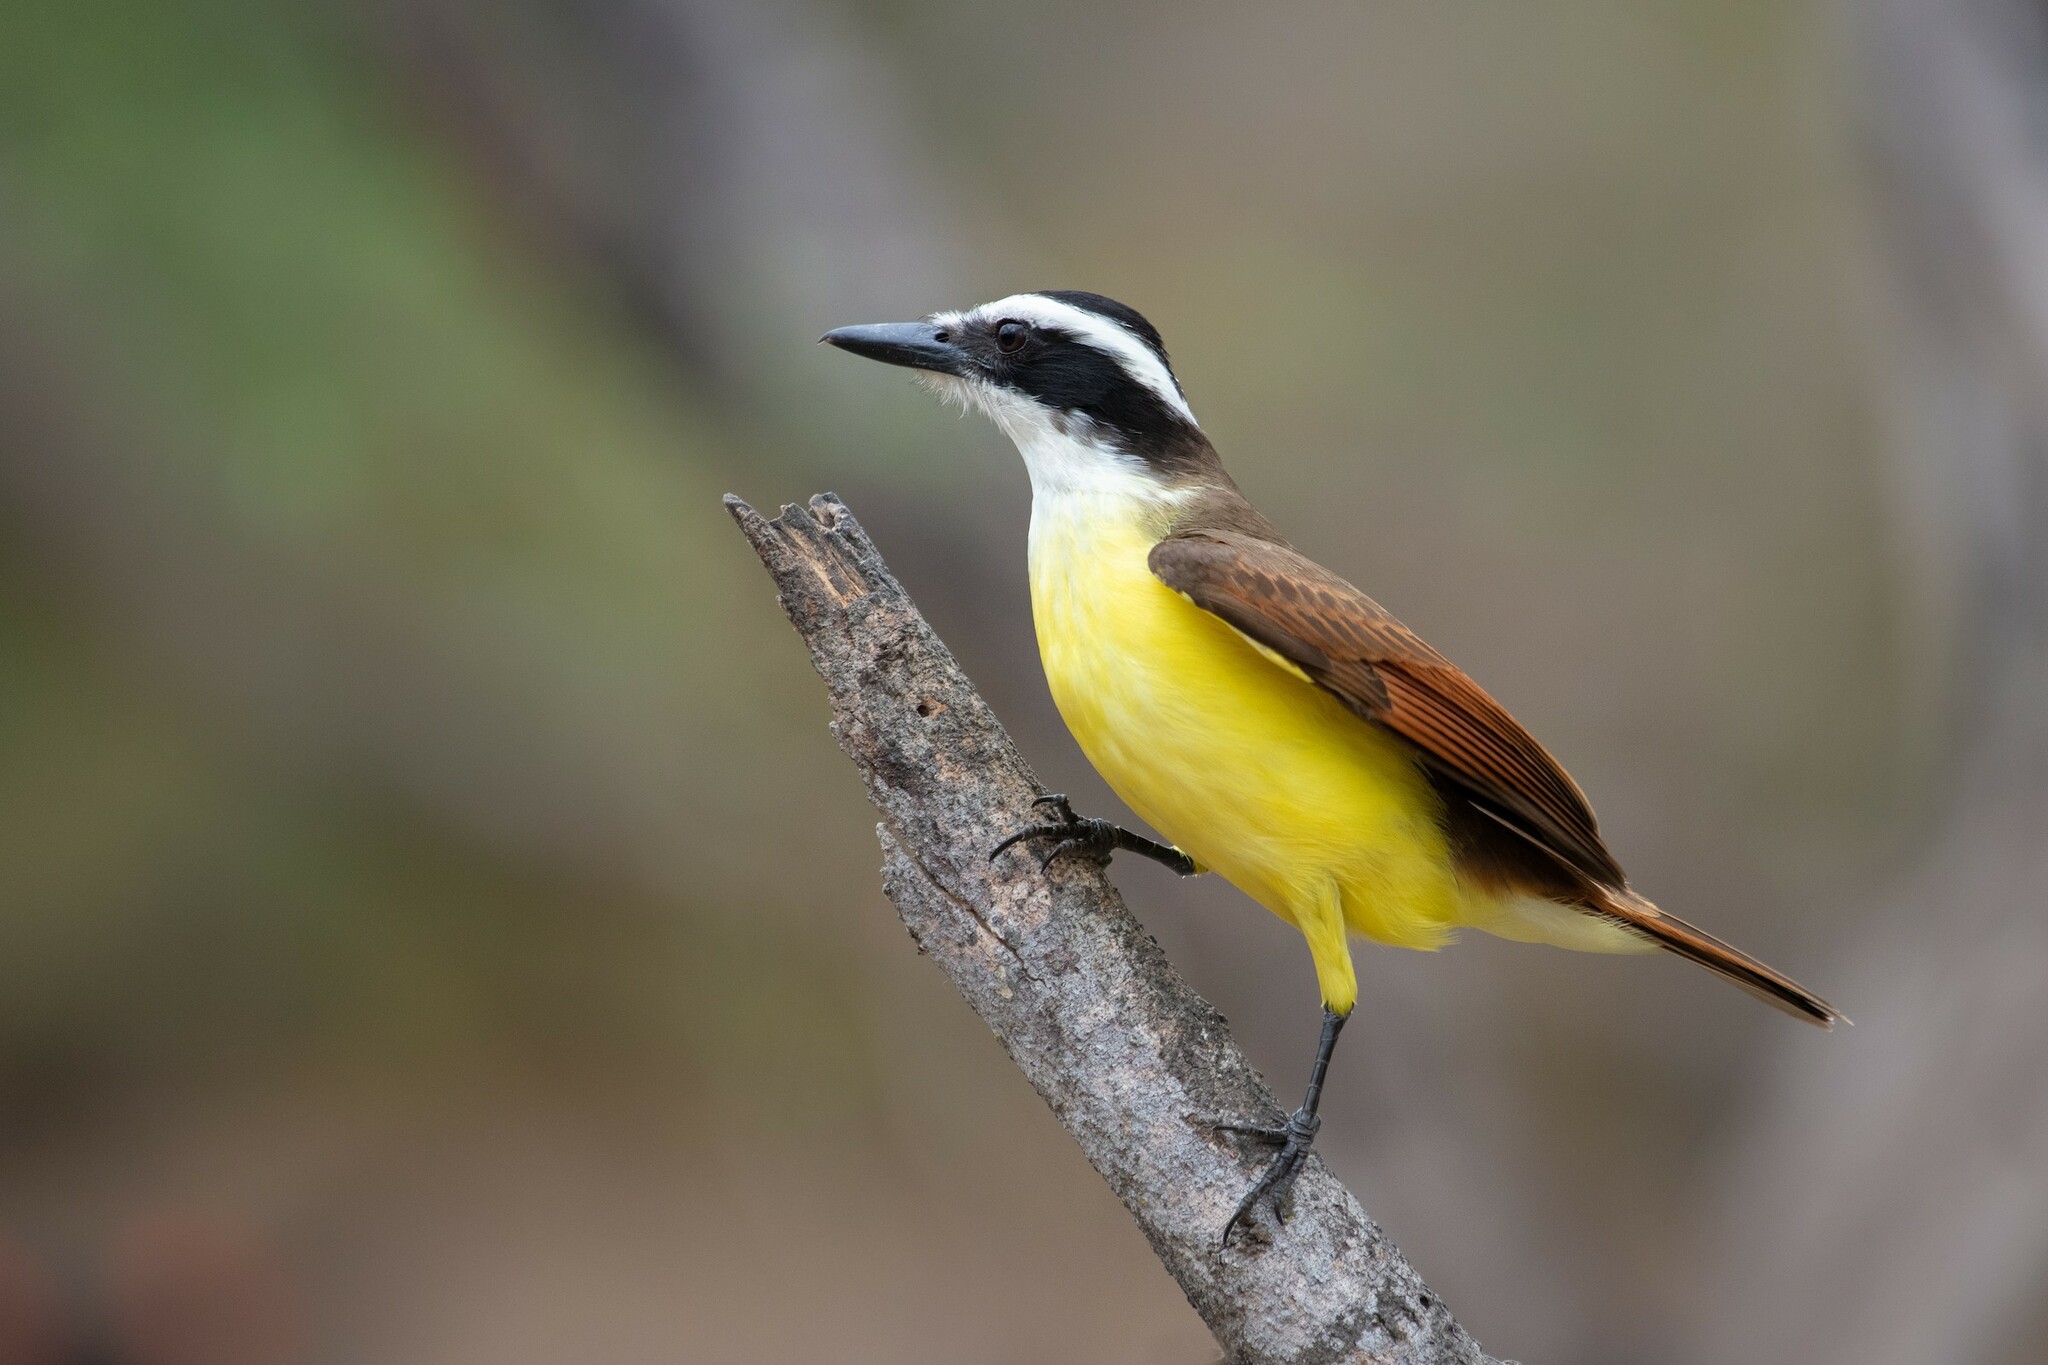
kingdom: Animalia
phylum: Chordata
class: Aves
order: Passeriformes
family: Tyrannidae
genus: Pitangus
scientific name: Pitangus sulphuratus
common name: Great kiskadee
